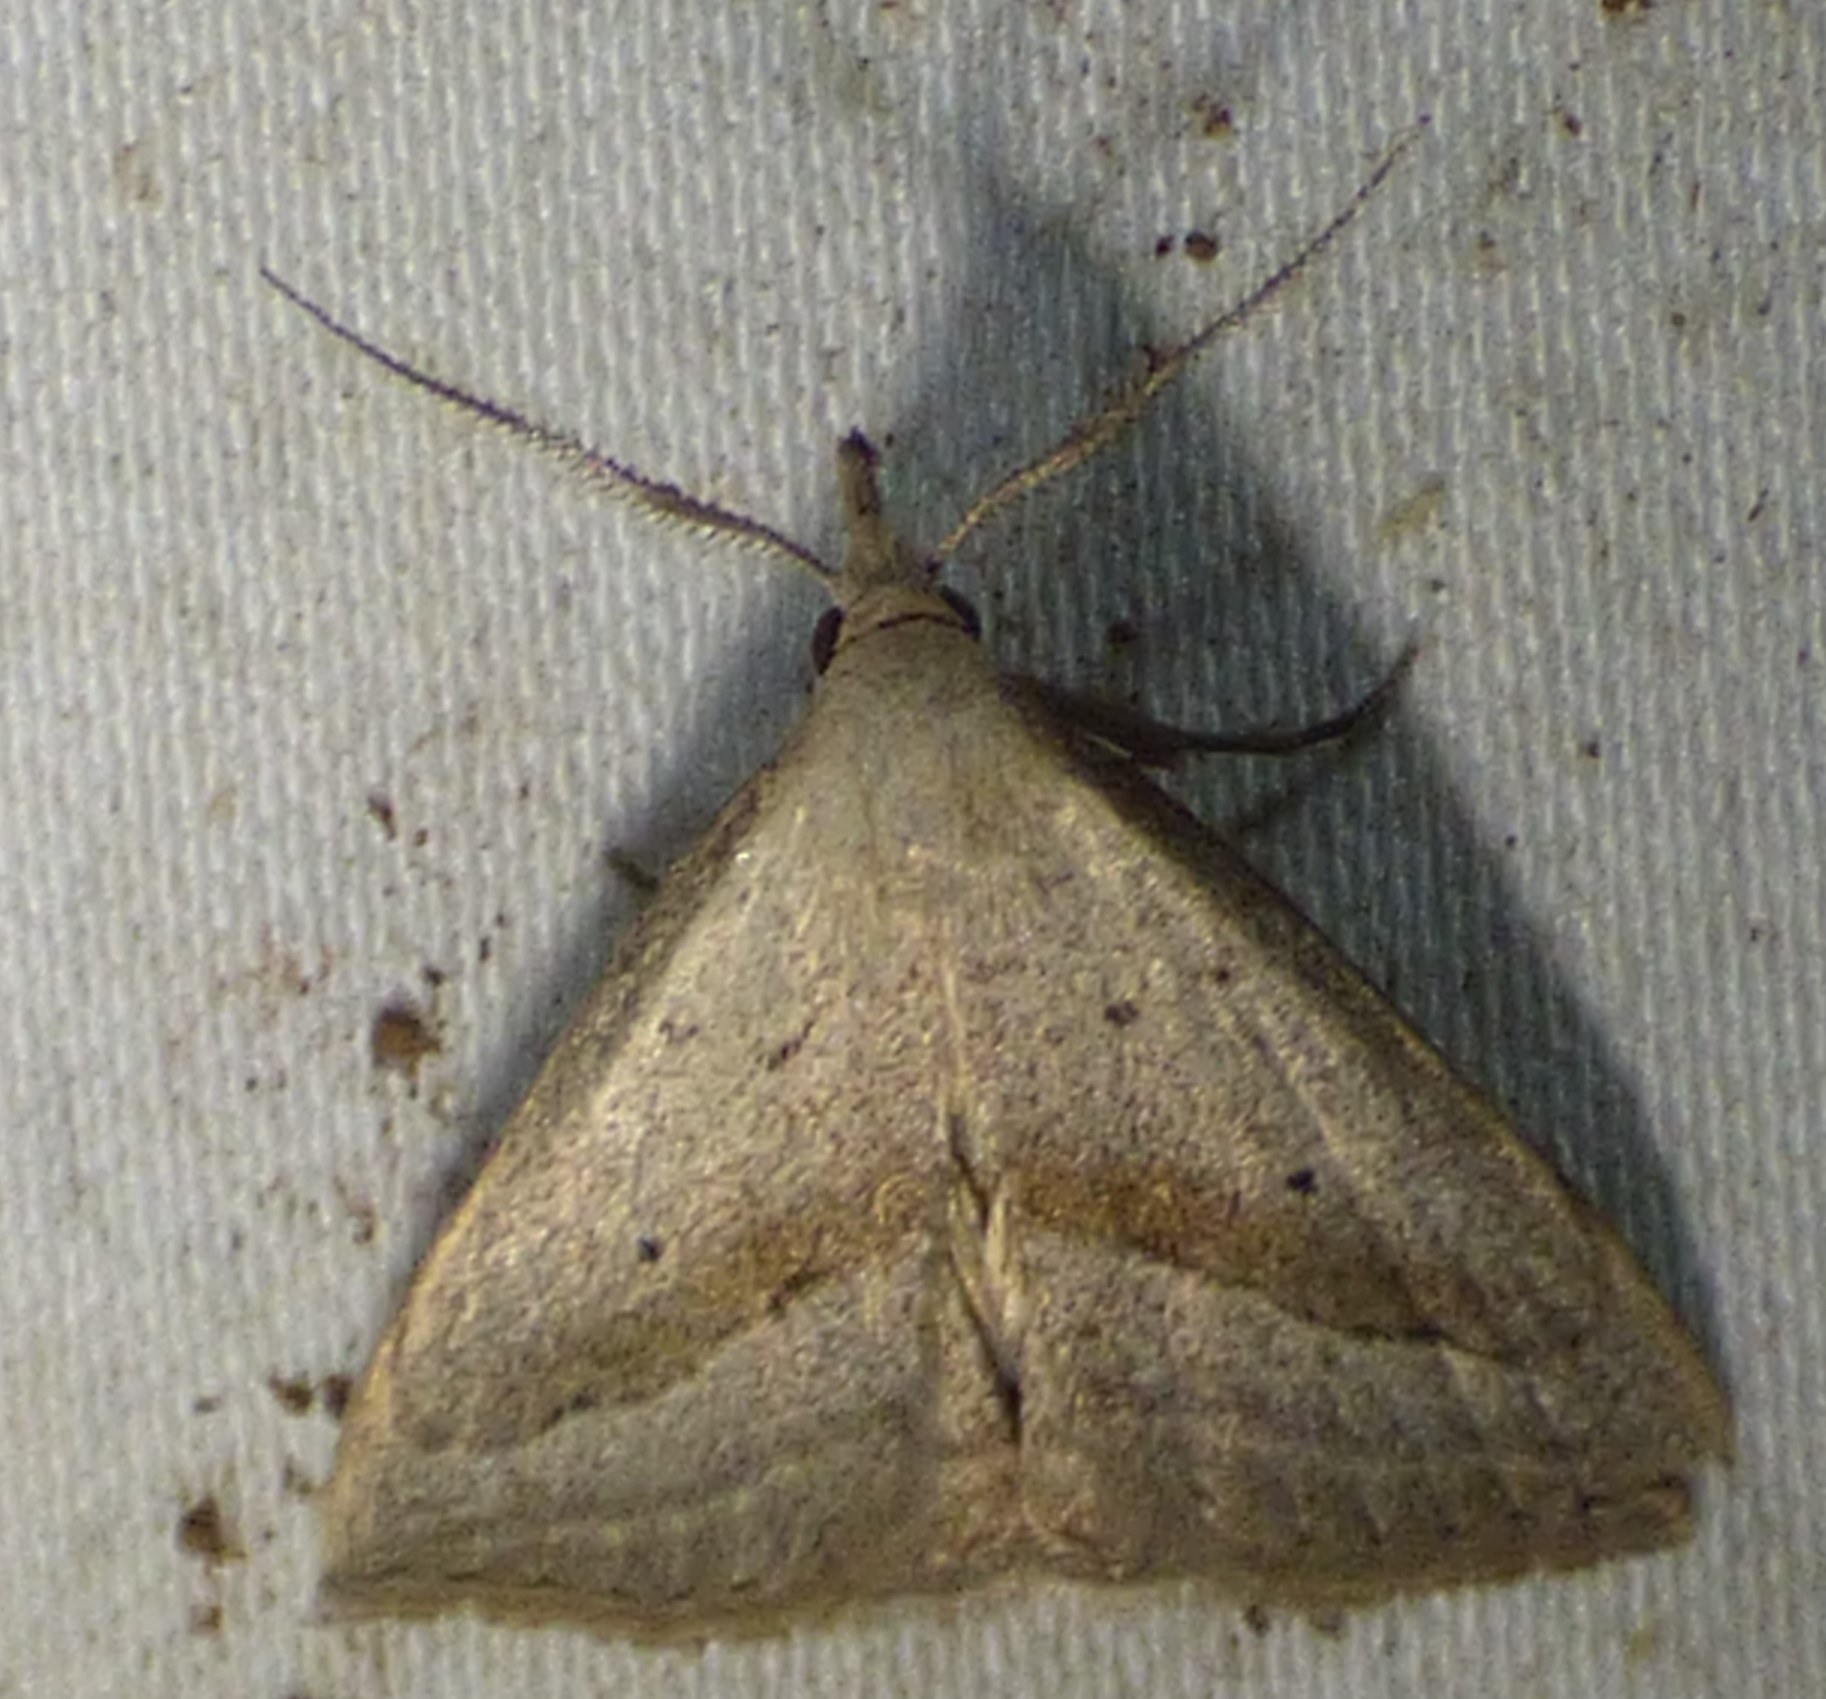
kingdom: Animalia
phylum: Arthropoda
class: Insecta
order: Lepidoptera
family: Erebidae
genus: Macrochilo
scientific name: Macrochilo hypocritalis
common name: Twin-dotted owlet
